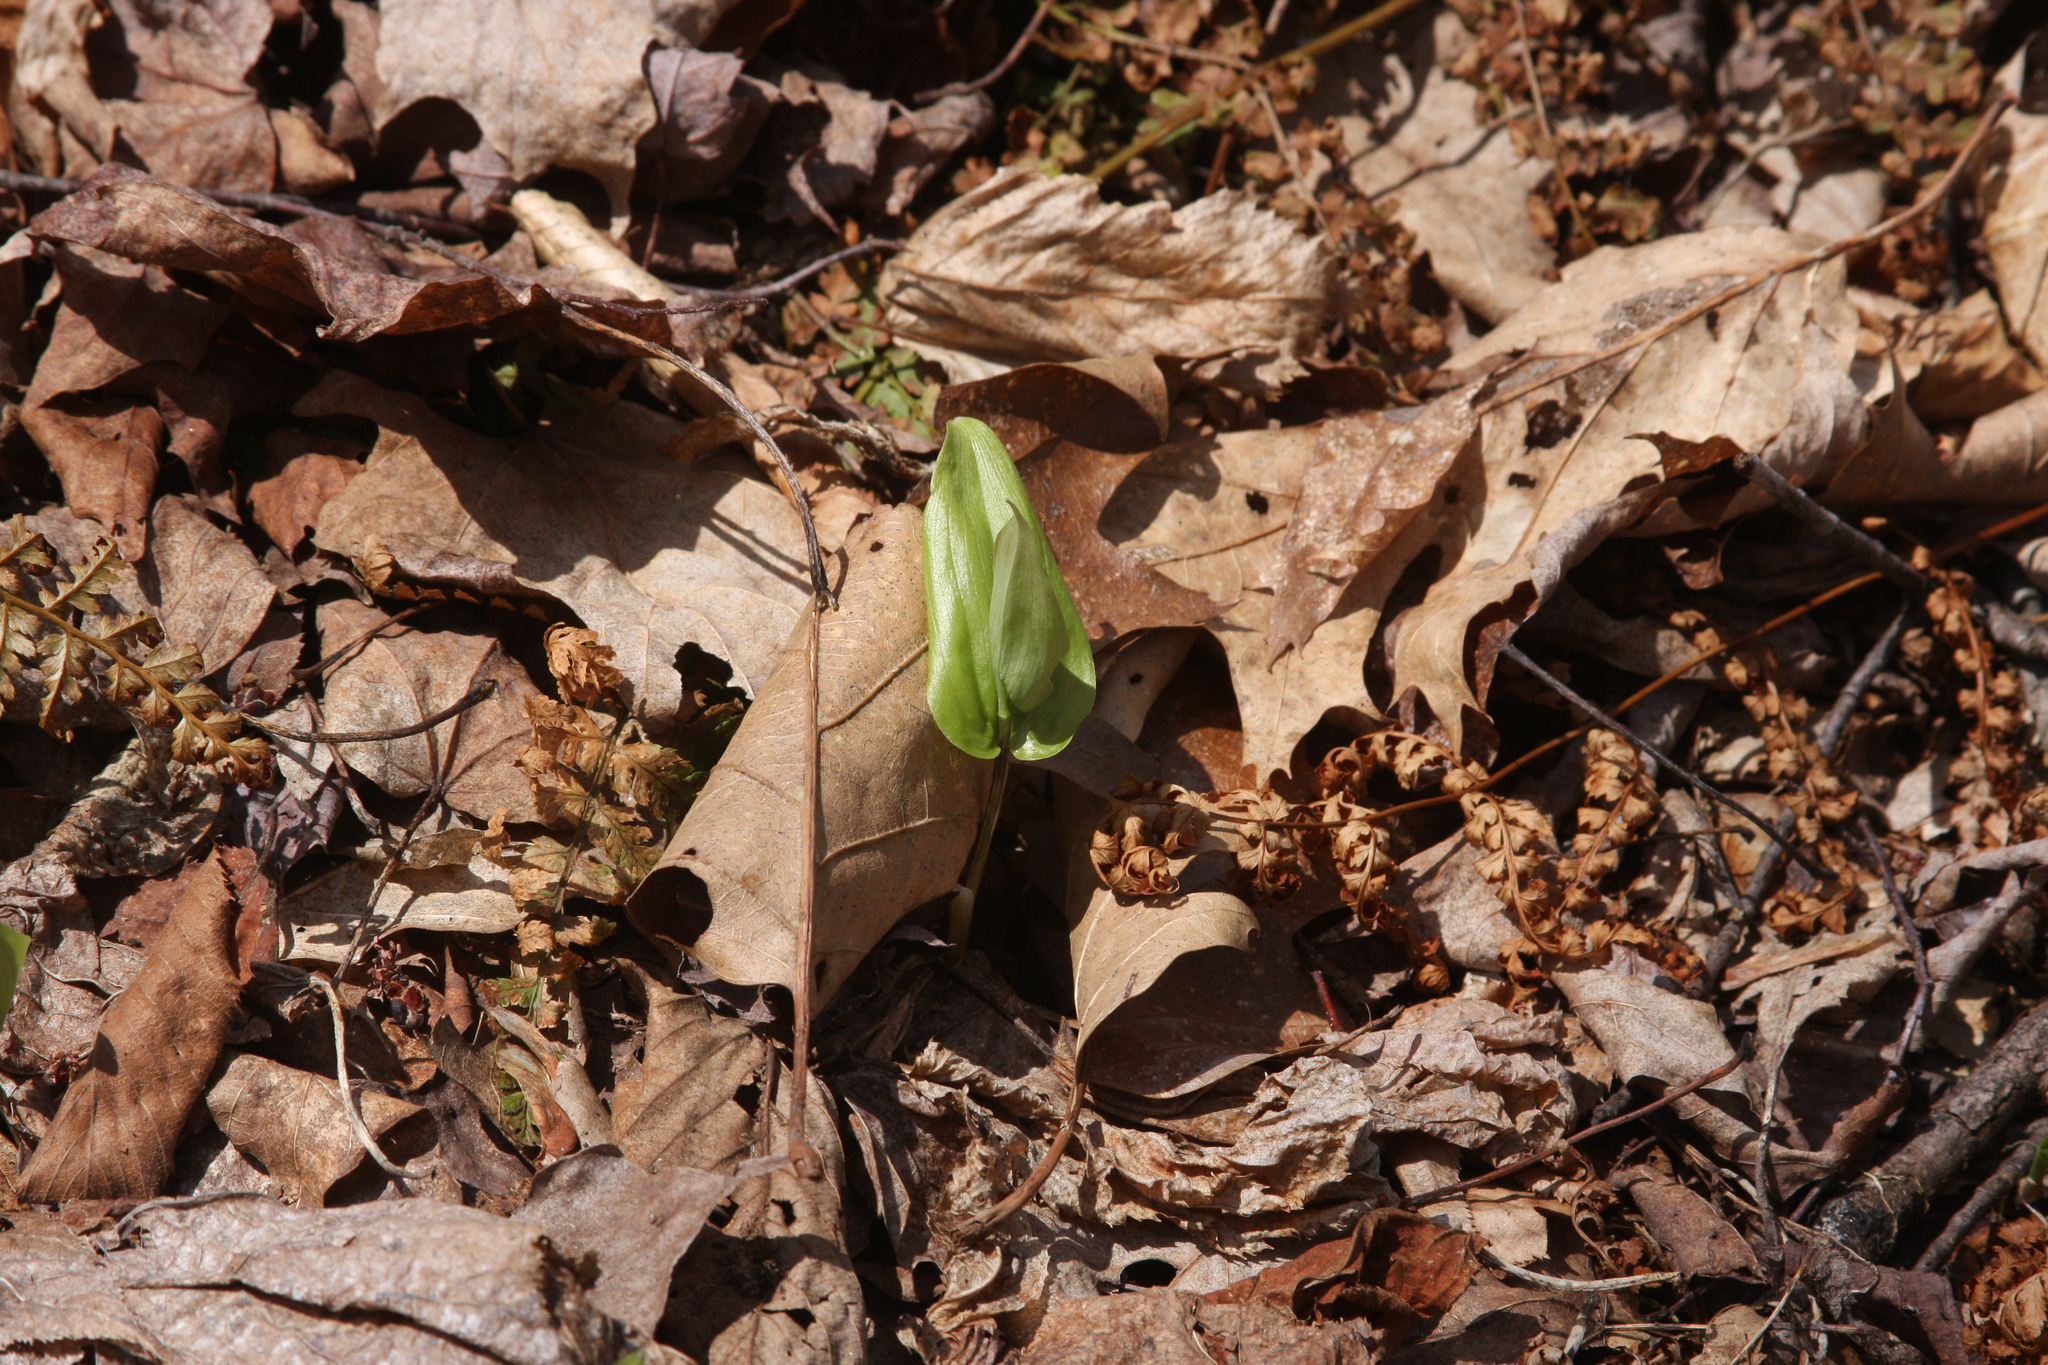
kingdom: Plantae
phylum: Tracheophyta
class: Liliopsida
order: Asparagales
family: Asparagaceae
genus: Maianthemum
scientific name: Maianthemum canadense
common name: False lily-of-the-valley
